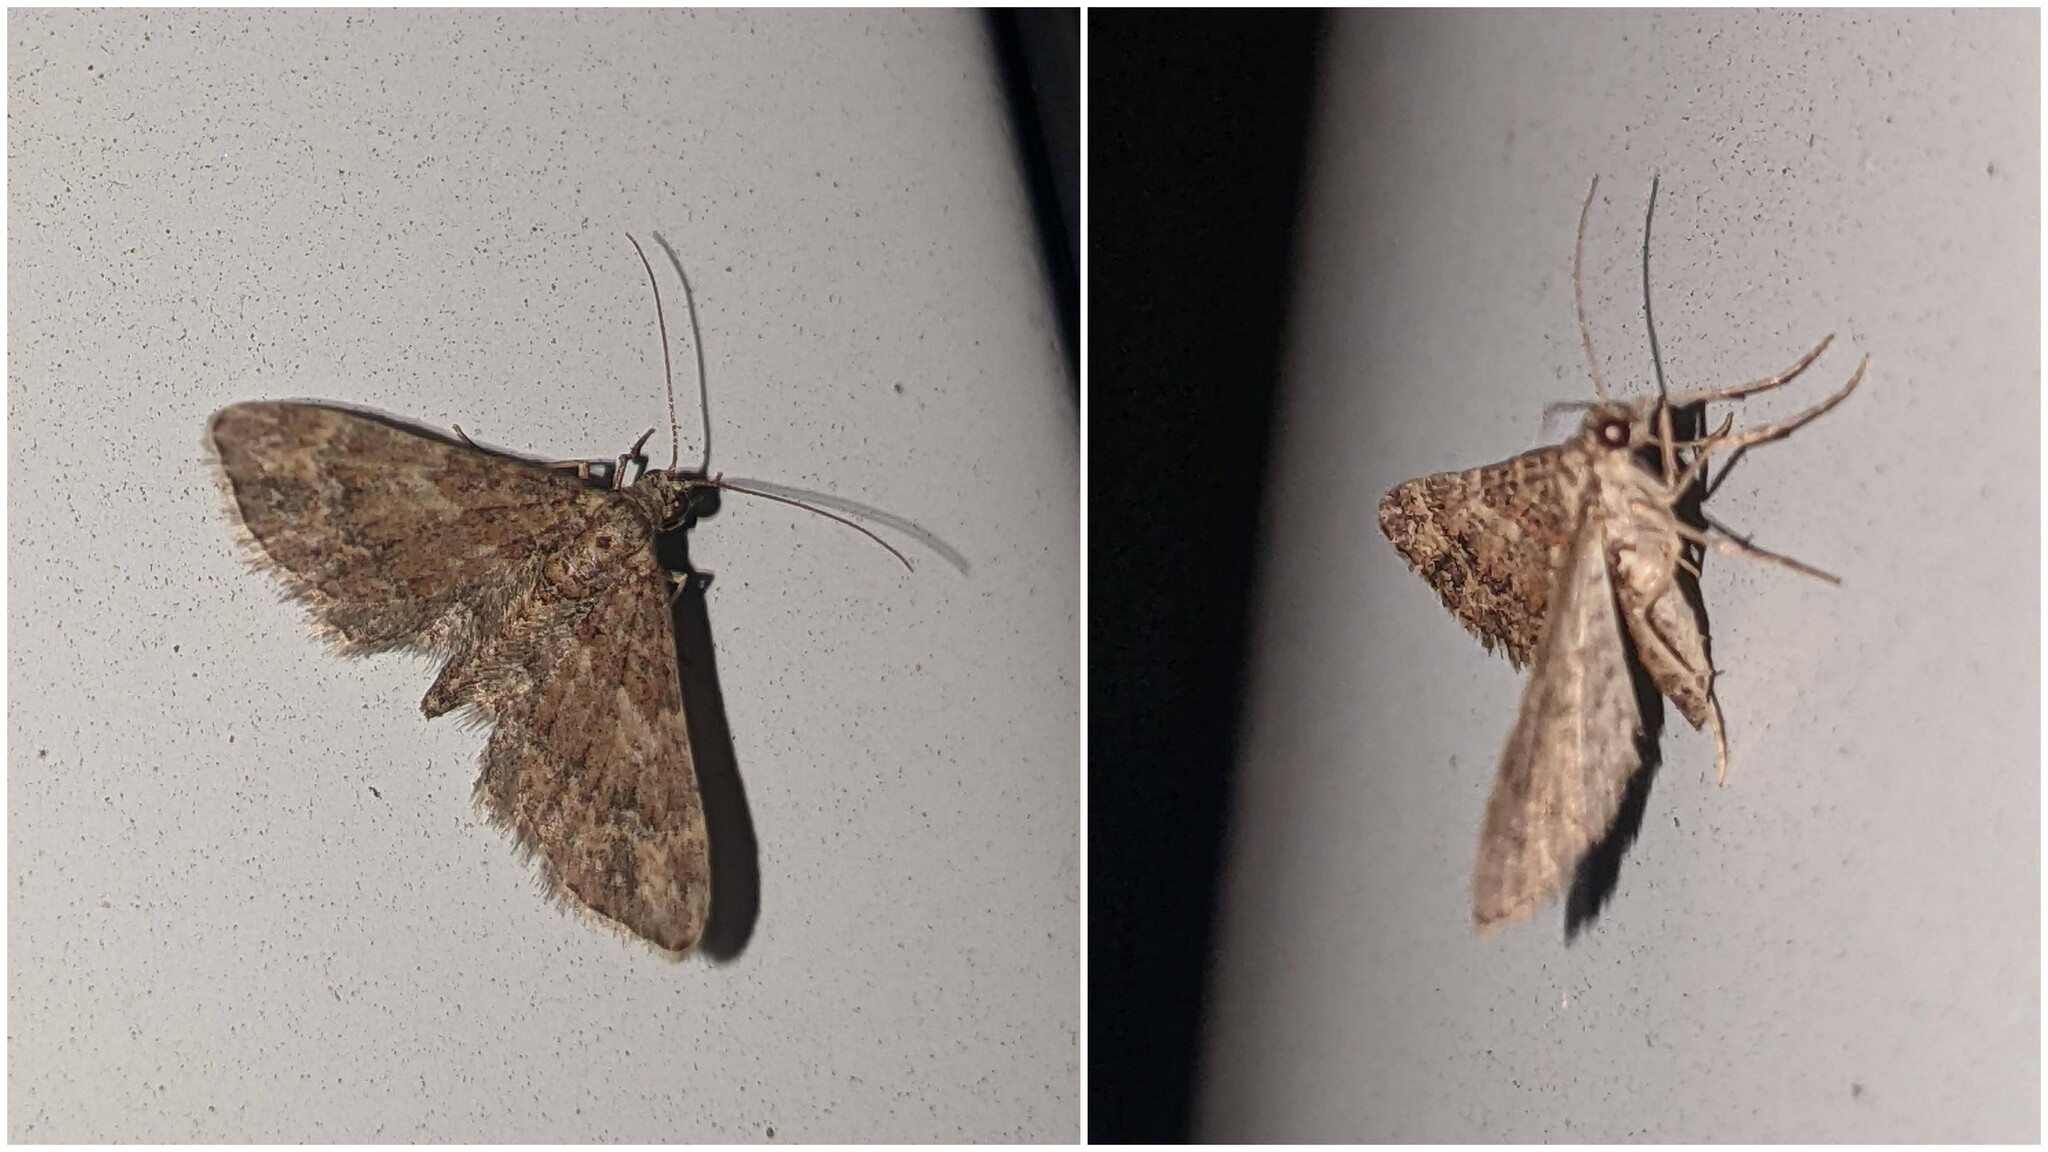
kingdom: Animalia
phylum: Arthropoda
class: Insecta
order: Lepidoptera
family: Geometridae
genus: Gymnoscelis
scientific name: Gymnoscelis rufifasciata
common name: Double-striped pug
